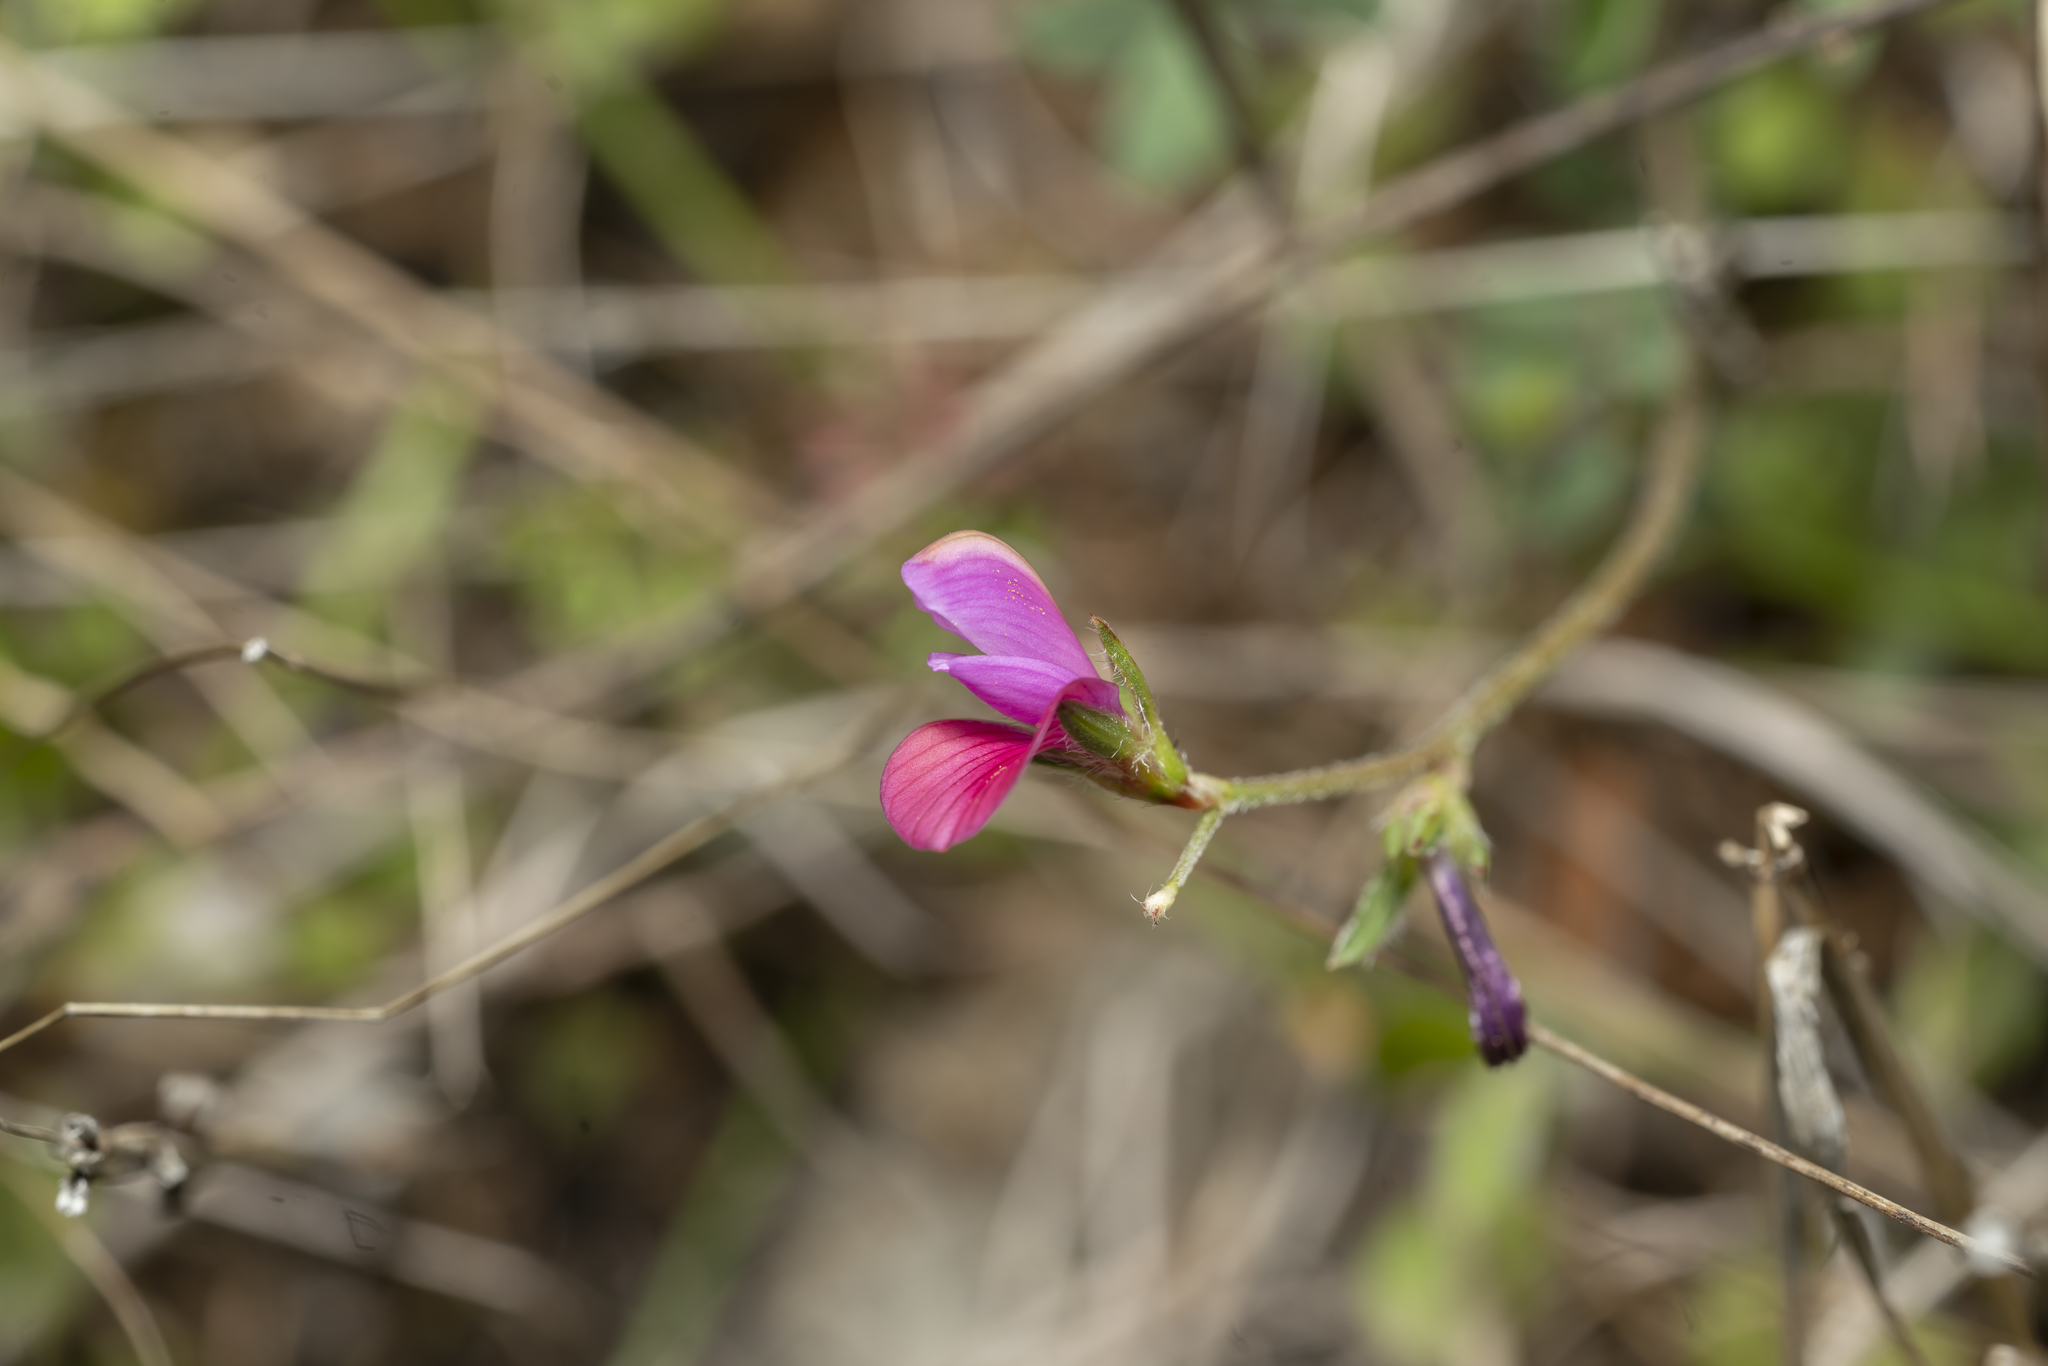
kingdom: Plantae
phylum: Tracheophyta
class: Magnoliopsida
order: Fabales
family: Fabaceae
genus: Onobrychis
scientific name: Onobrychis
